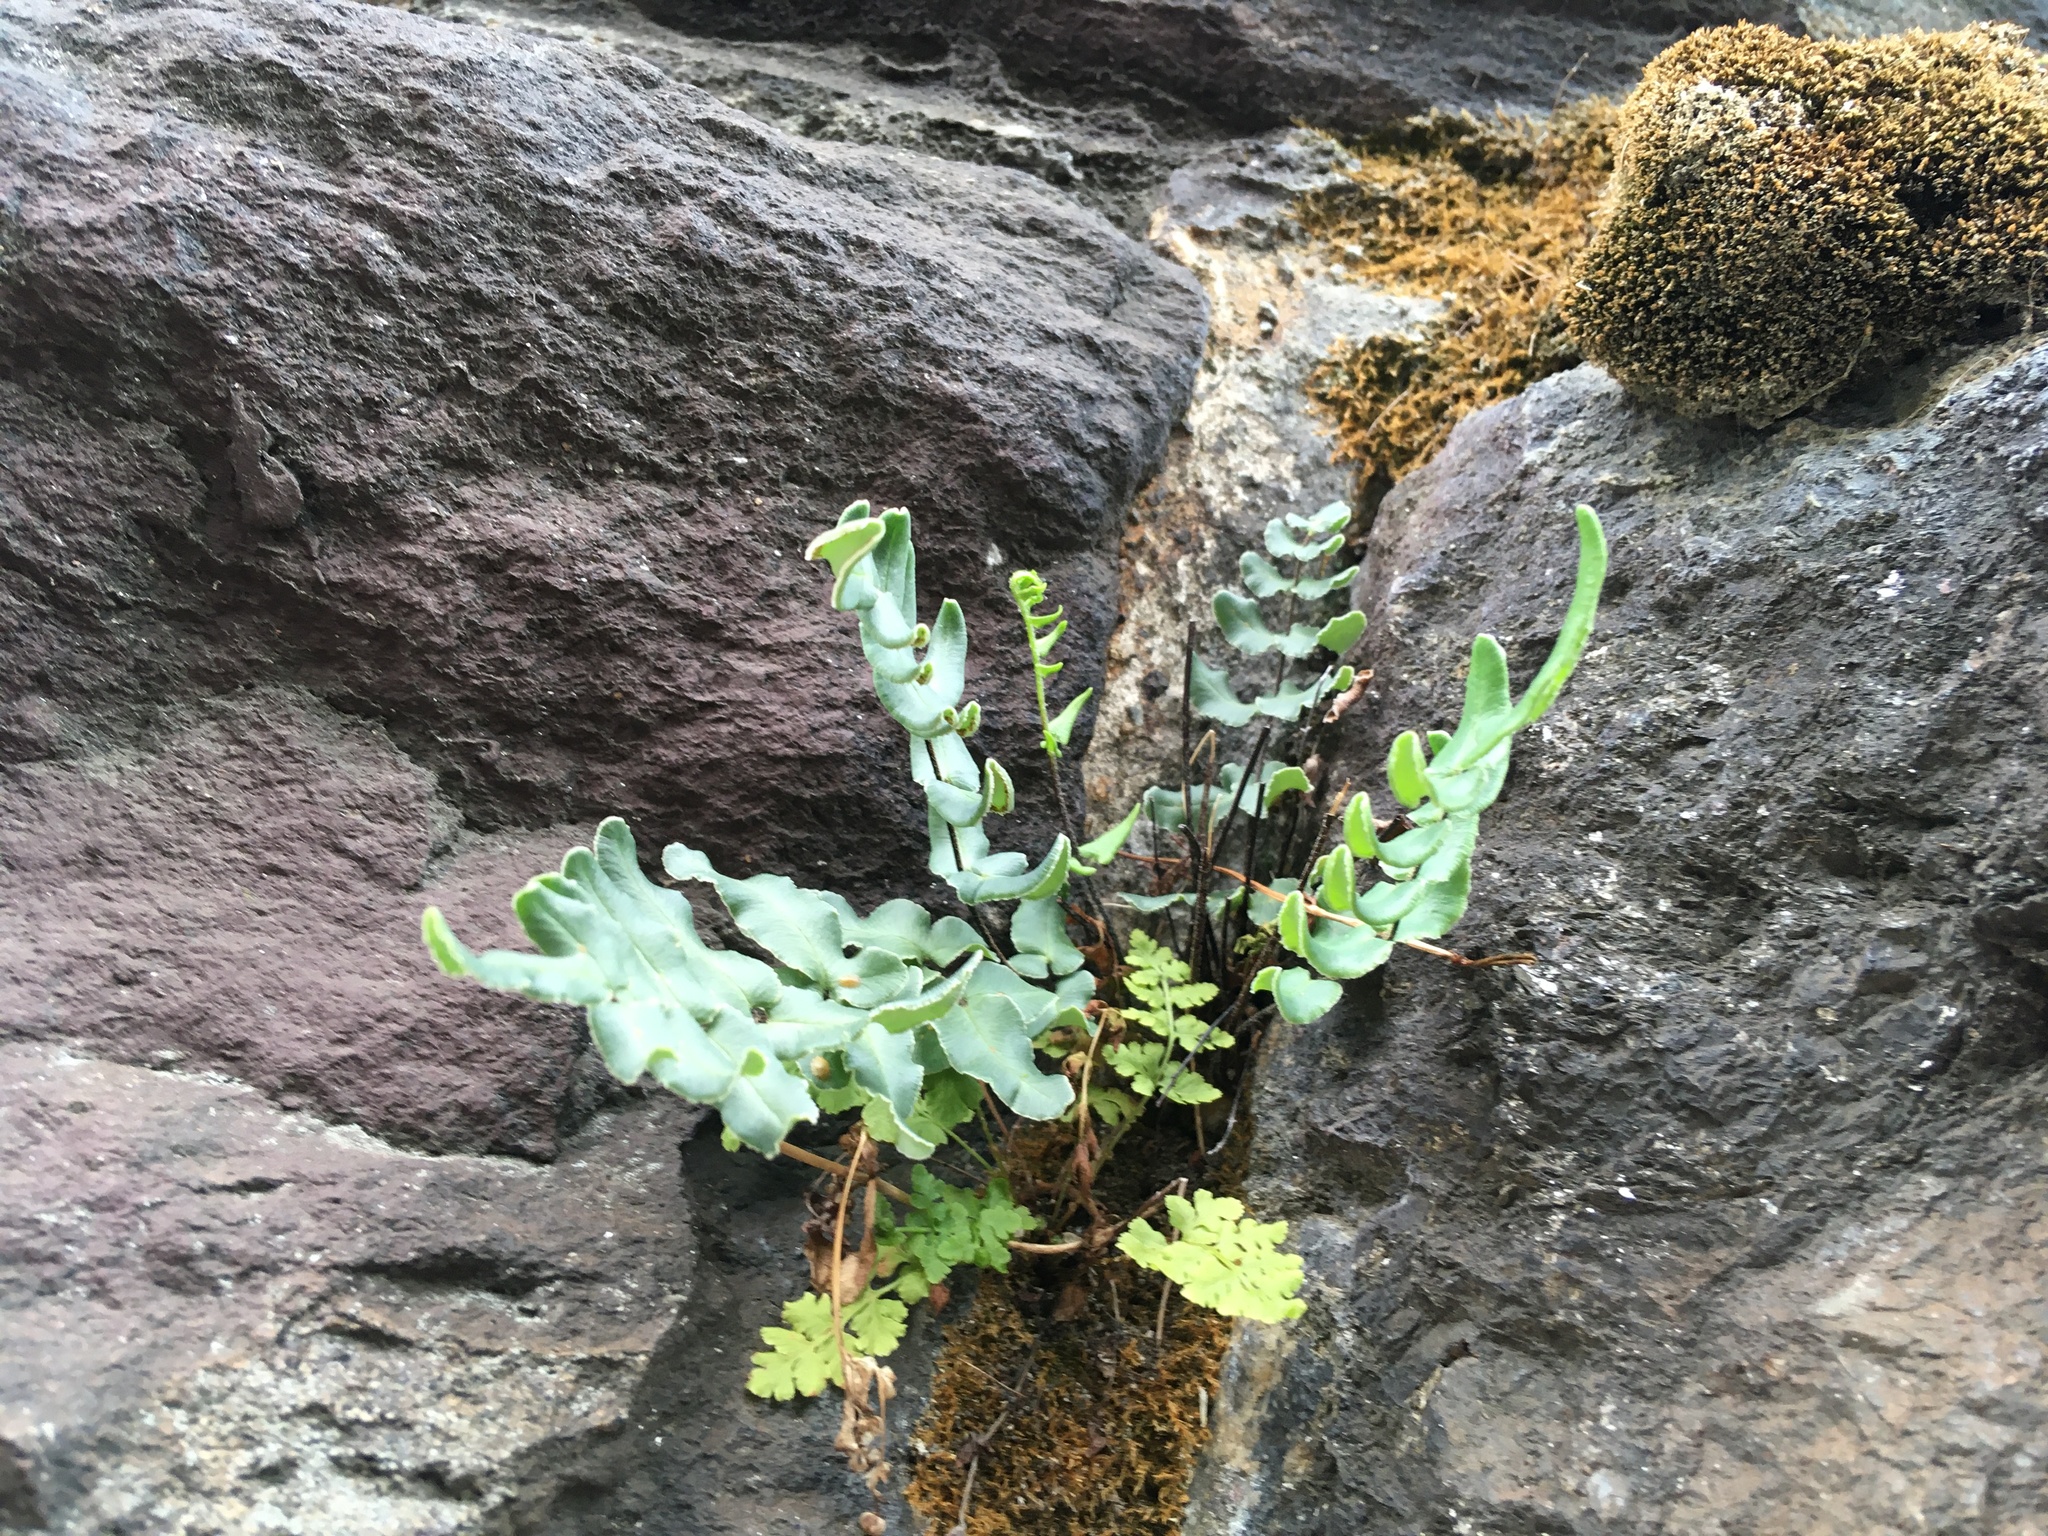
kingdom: Plantae
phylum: Tracheophyta
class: Polypodiopsida
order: Polypodiales
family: Pteridaceae
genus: Pellaea
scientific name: Pellaea atropurpurea
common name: Hairy cliffbrake
